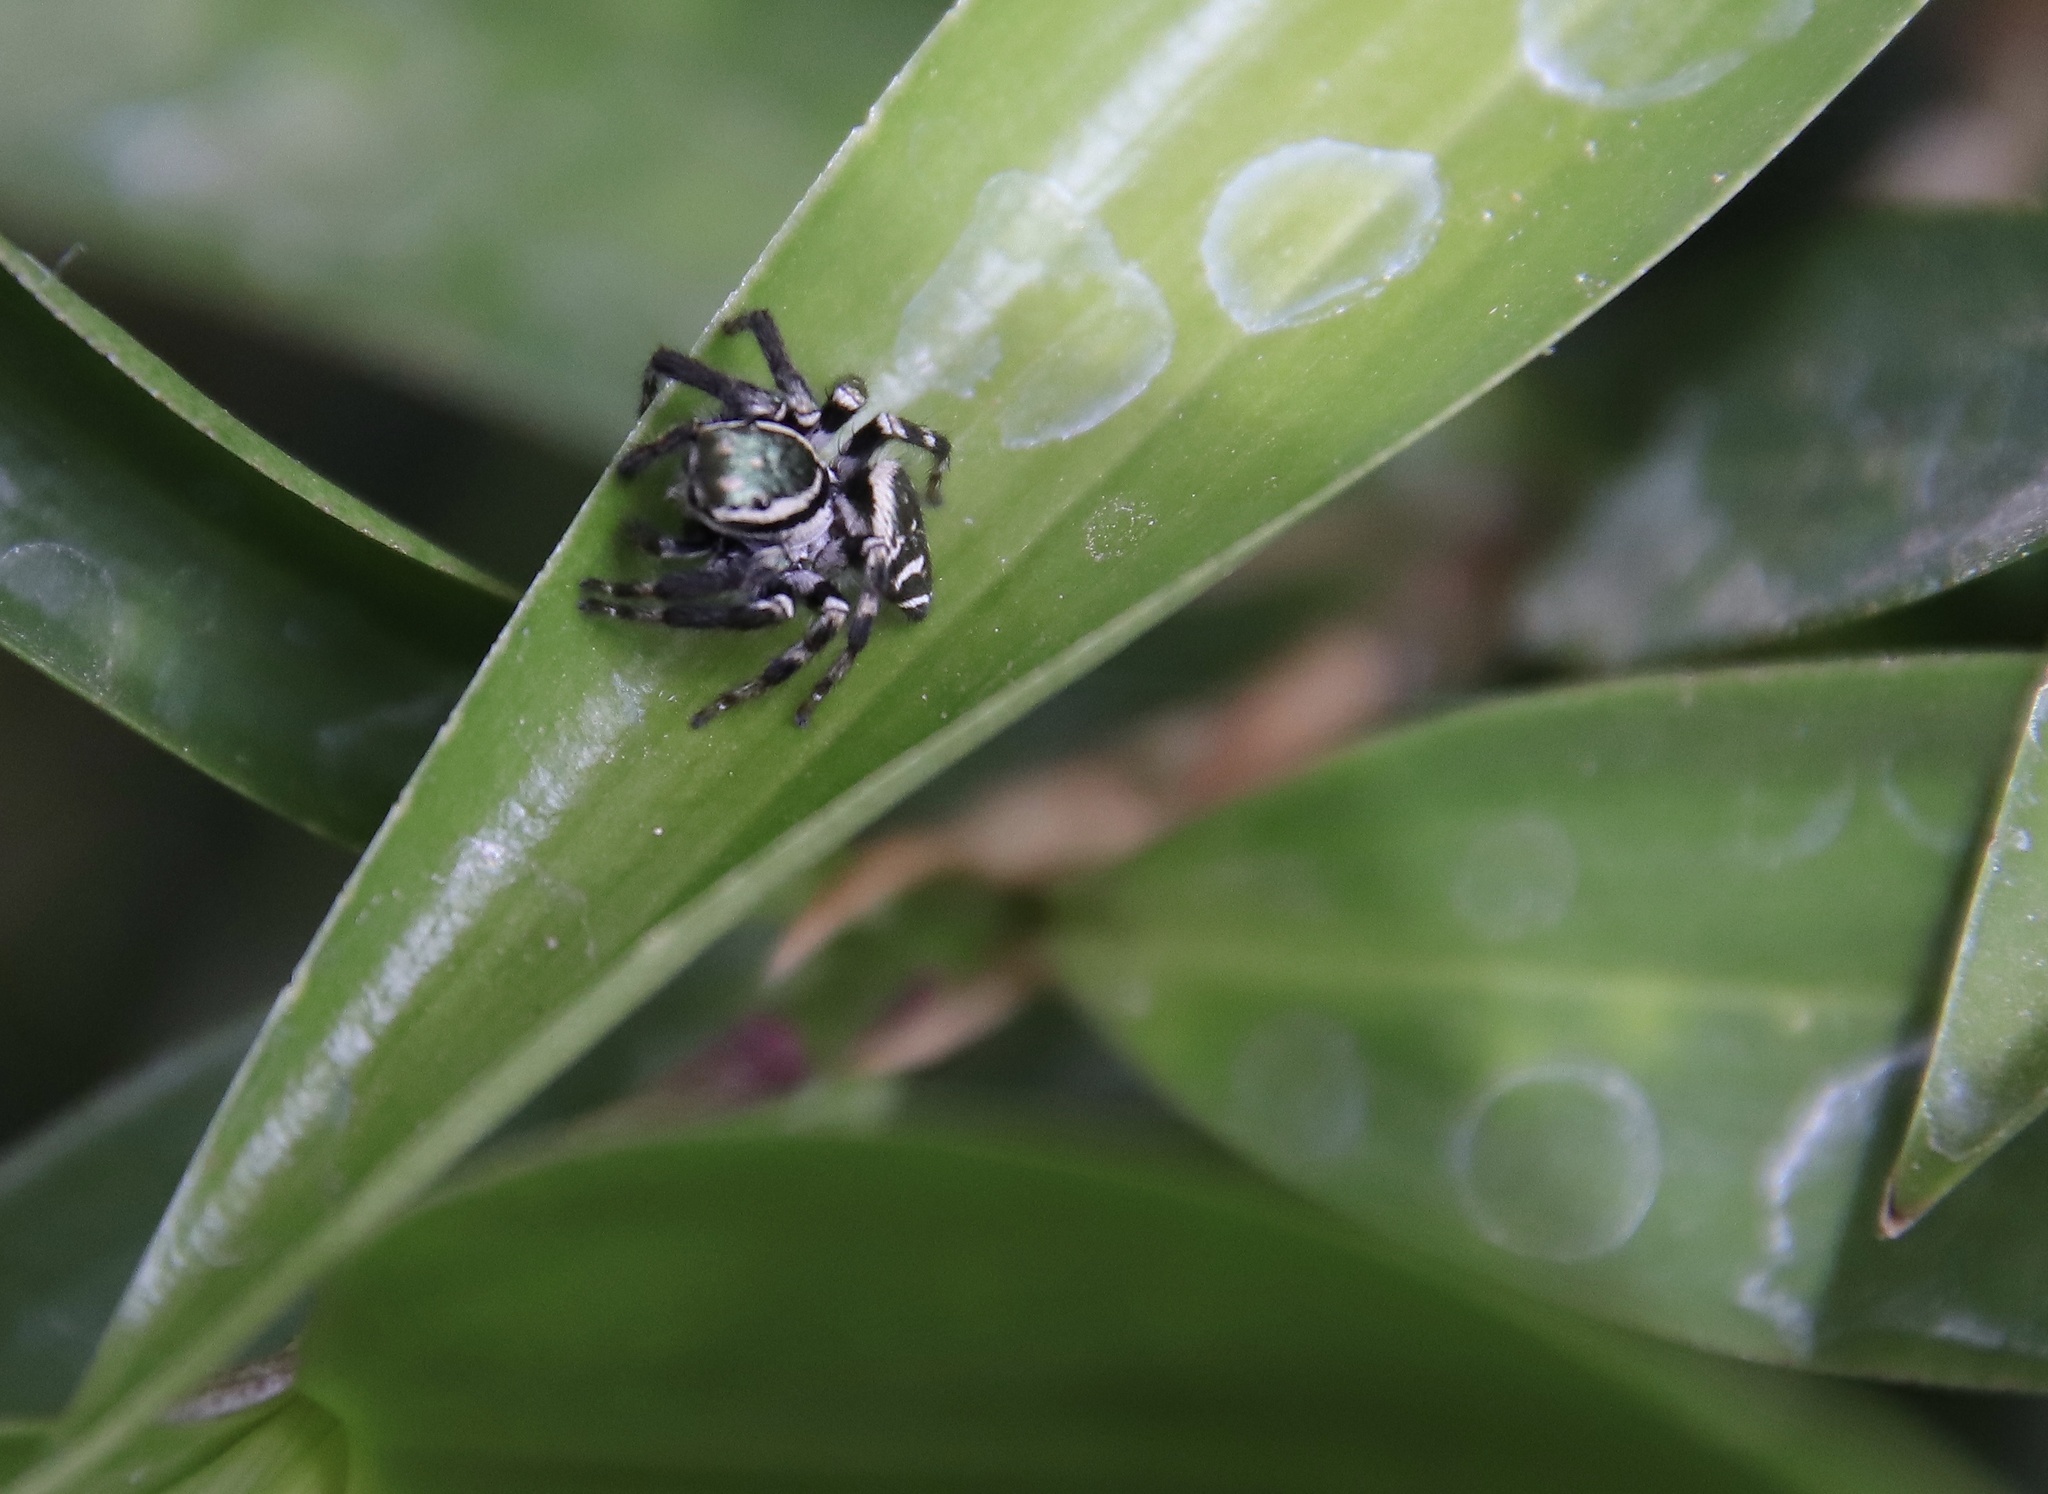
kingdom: Animalia
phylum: Arthropoda
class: Arachnida
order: Araneae
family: Salticidae
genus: Carrhotus
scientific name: Carrhotus sannio
